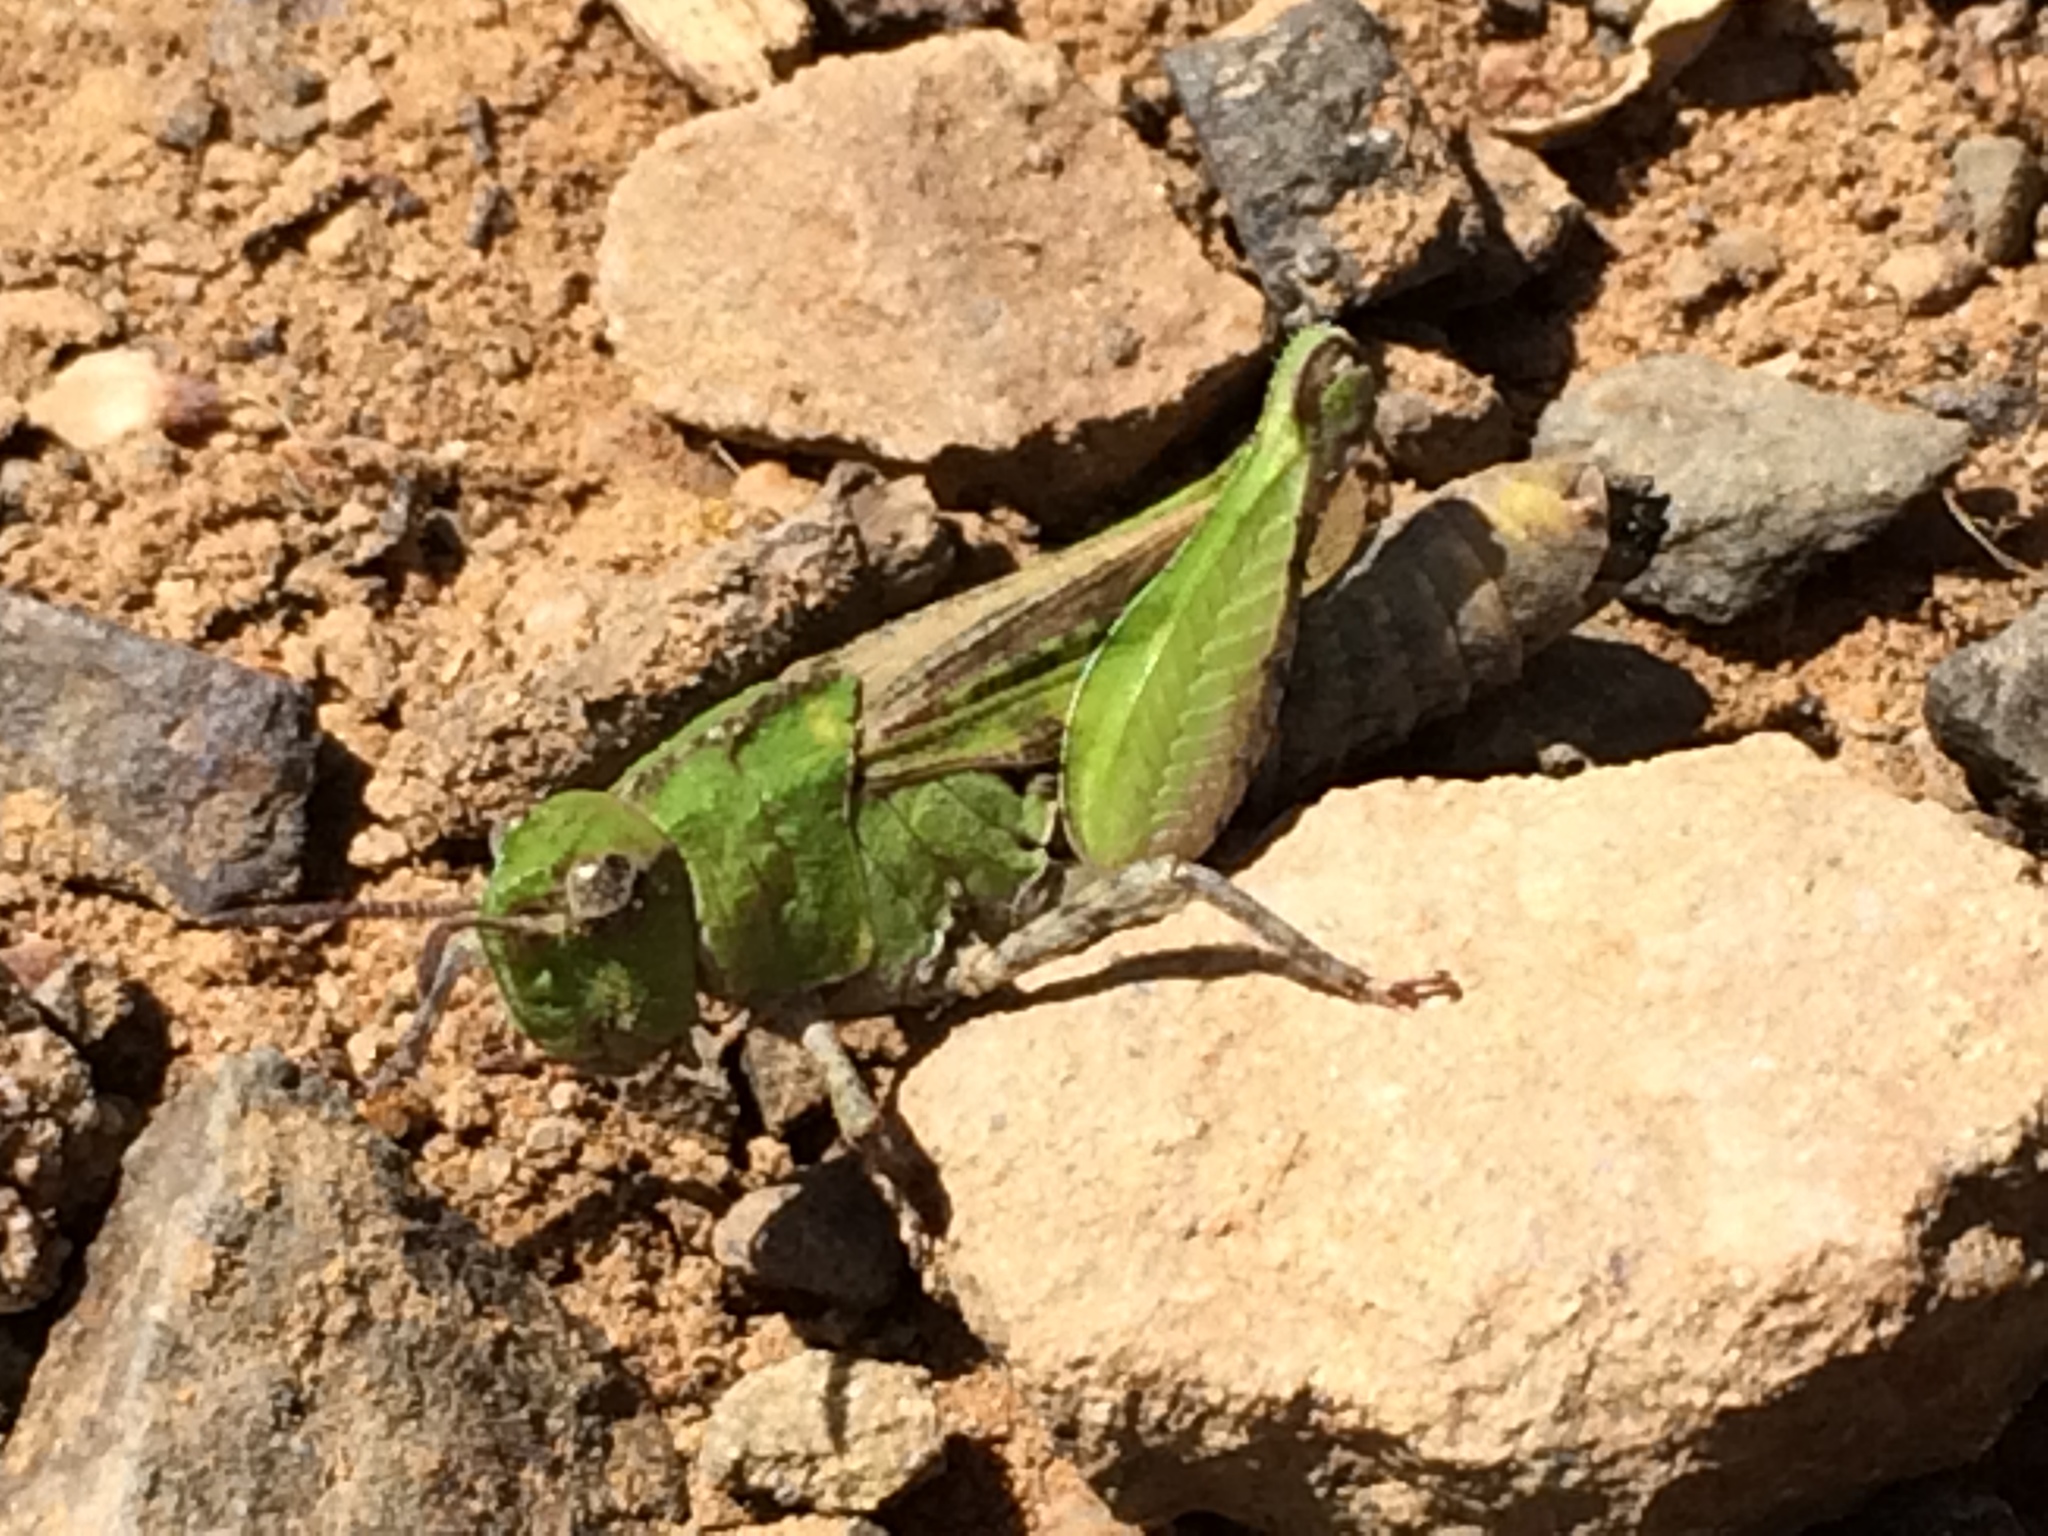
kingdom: Animalia
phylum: Arthropoda
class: Insecta
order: Orthoptera
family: Acrididae
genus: Chimarocephala
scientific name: Chimarocephala pacifica
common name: Painted meadow grasshopper
